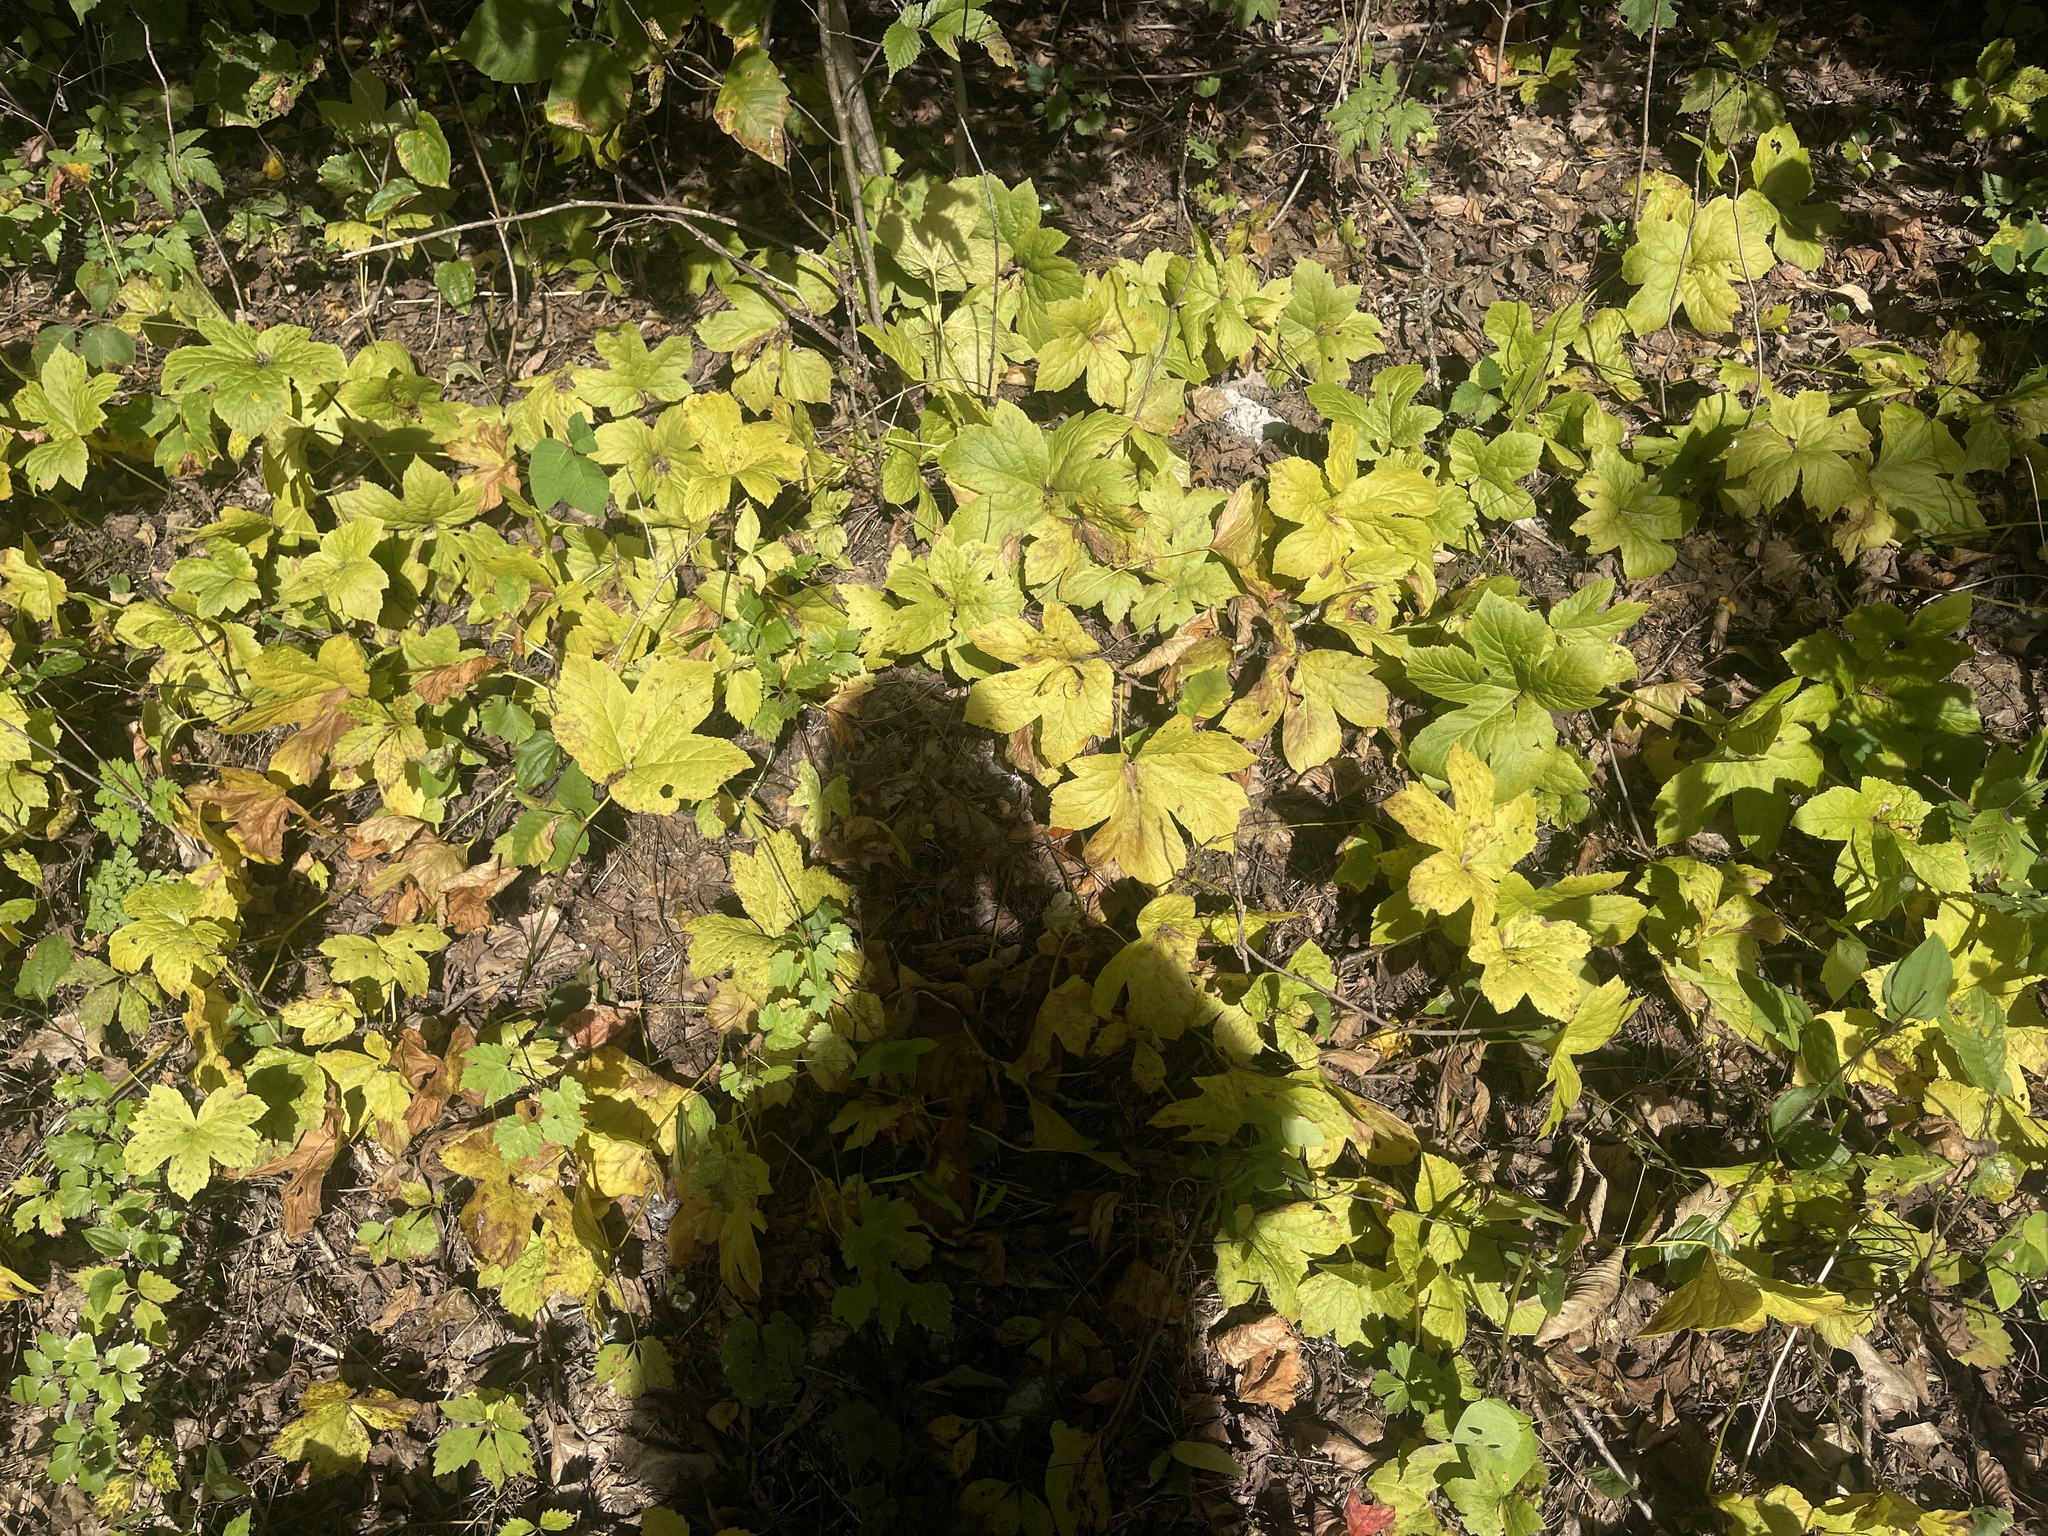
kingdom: Plantae
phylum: Tracheophyta
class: Magnoliopsida
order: Ranunculales
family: Ranunculaceae
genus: Hydrastis
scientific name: Hydrastis canadensis
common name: Goldenseal
